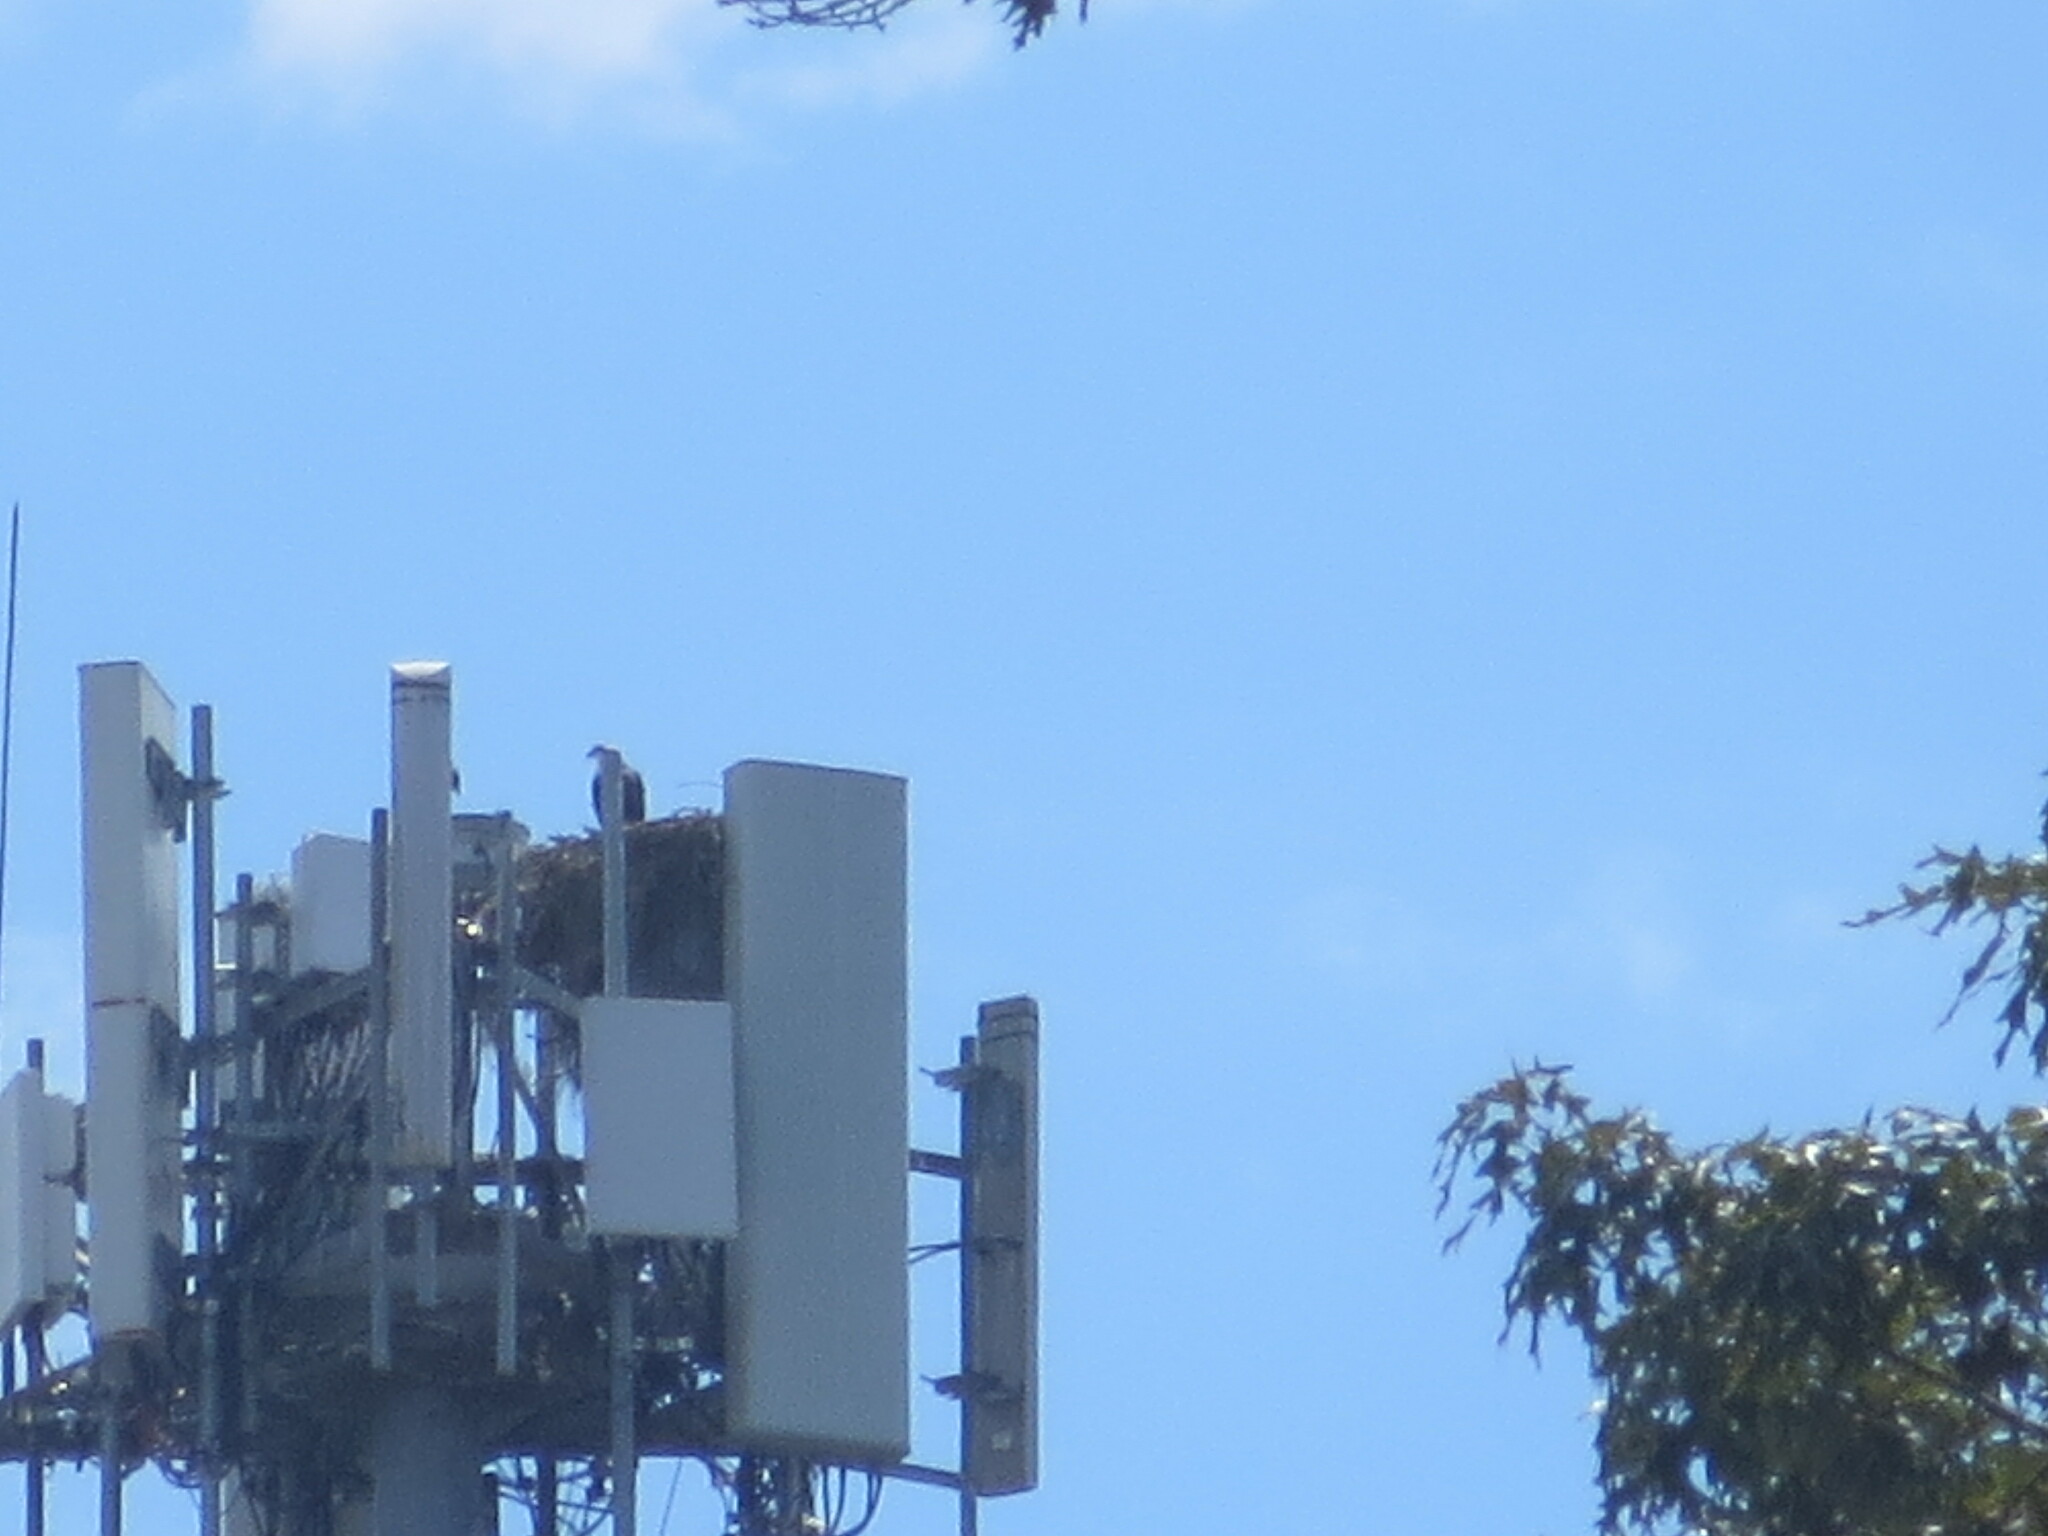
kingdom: Animalia
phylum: Chordata
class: Aves
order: Accipitriformes
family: Pandionidae
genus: Pandion
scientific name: Pandion haliaetus
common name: Osprey
